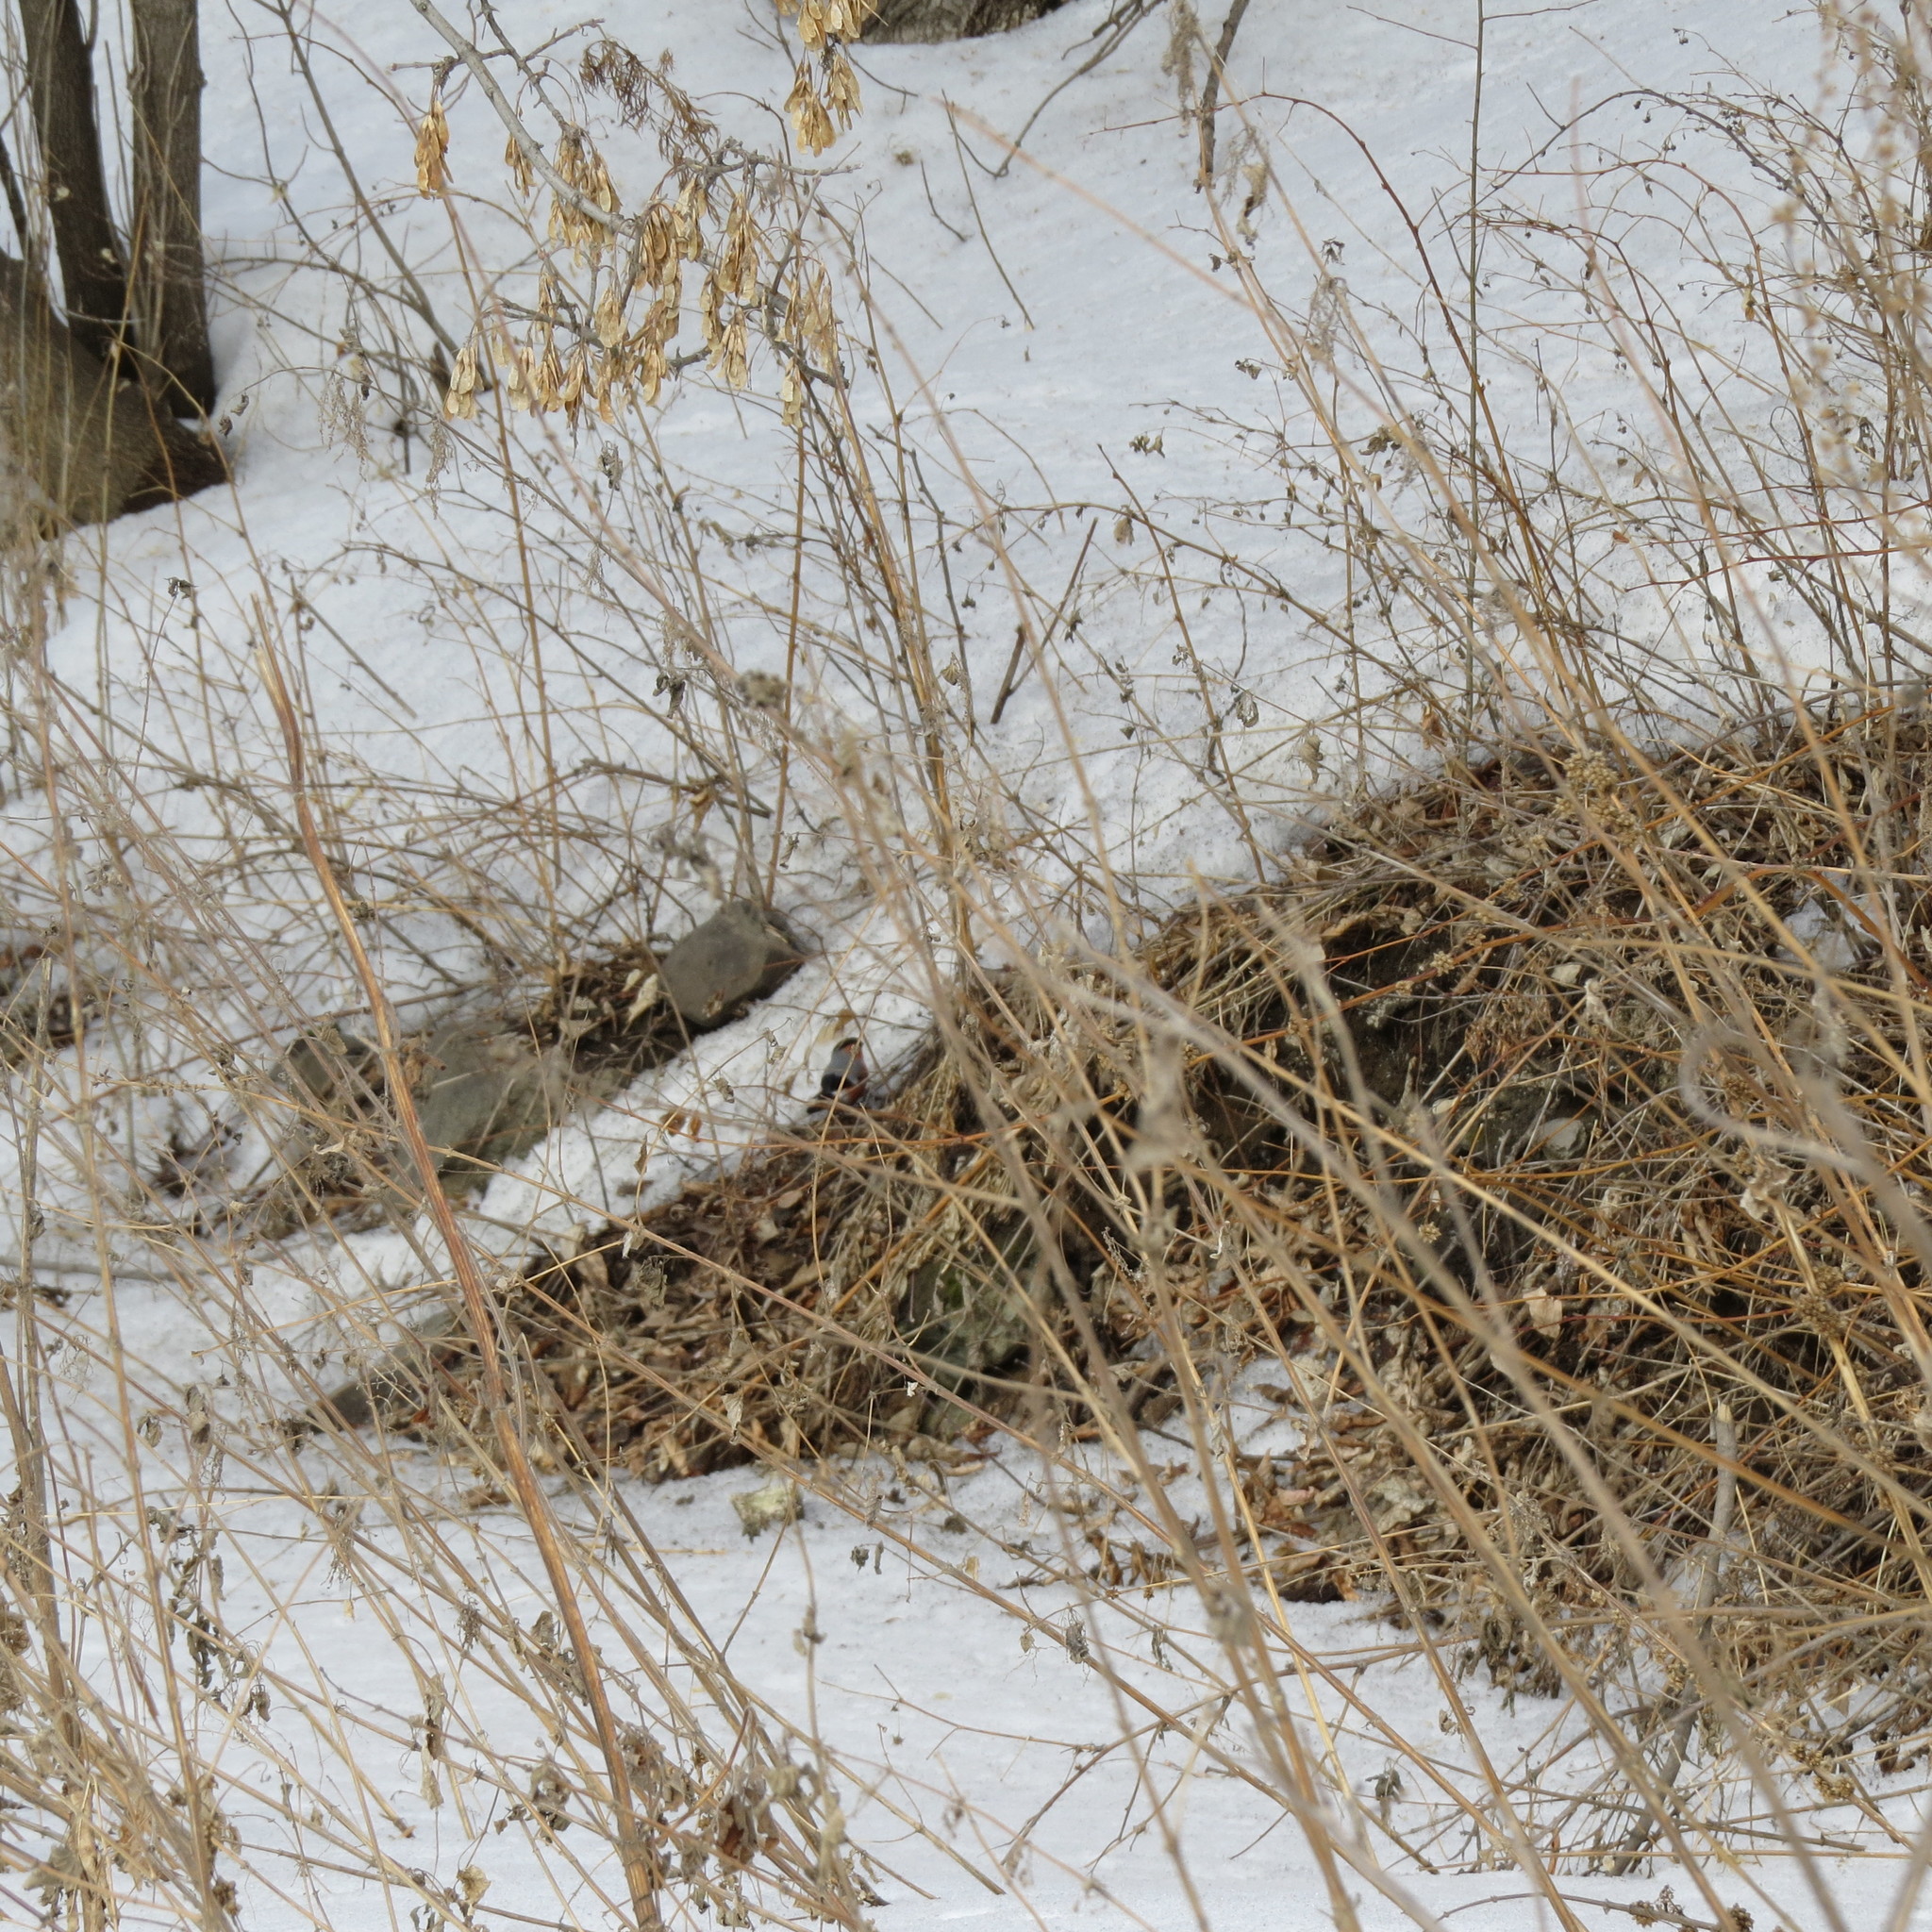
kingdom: Animalia
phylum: Chordata
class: Aves
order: Passeriformes
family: Fringillidae
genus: Pyrrhula
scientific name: Pyrrhula pyrrhula
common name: Eurasian bullfinch
